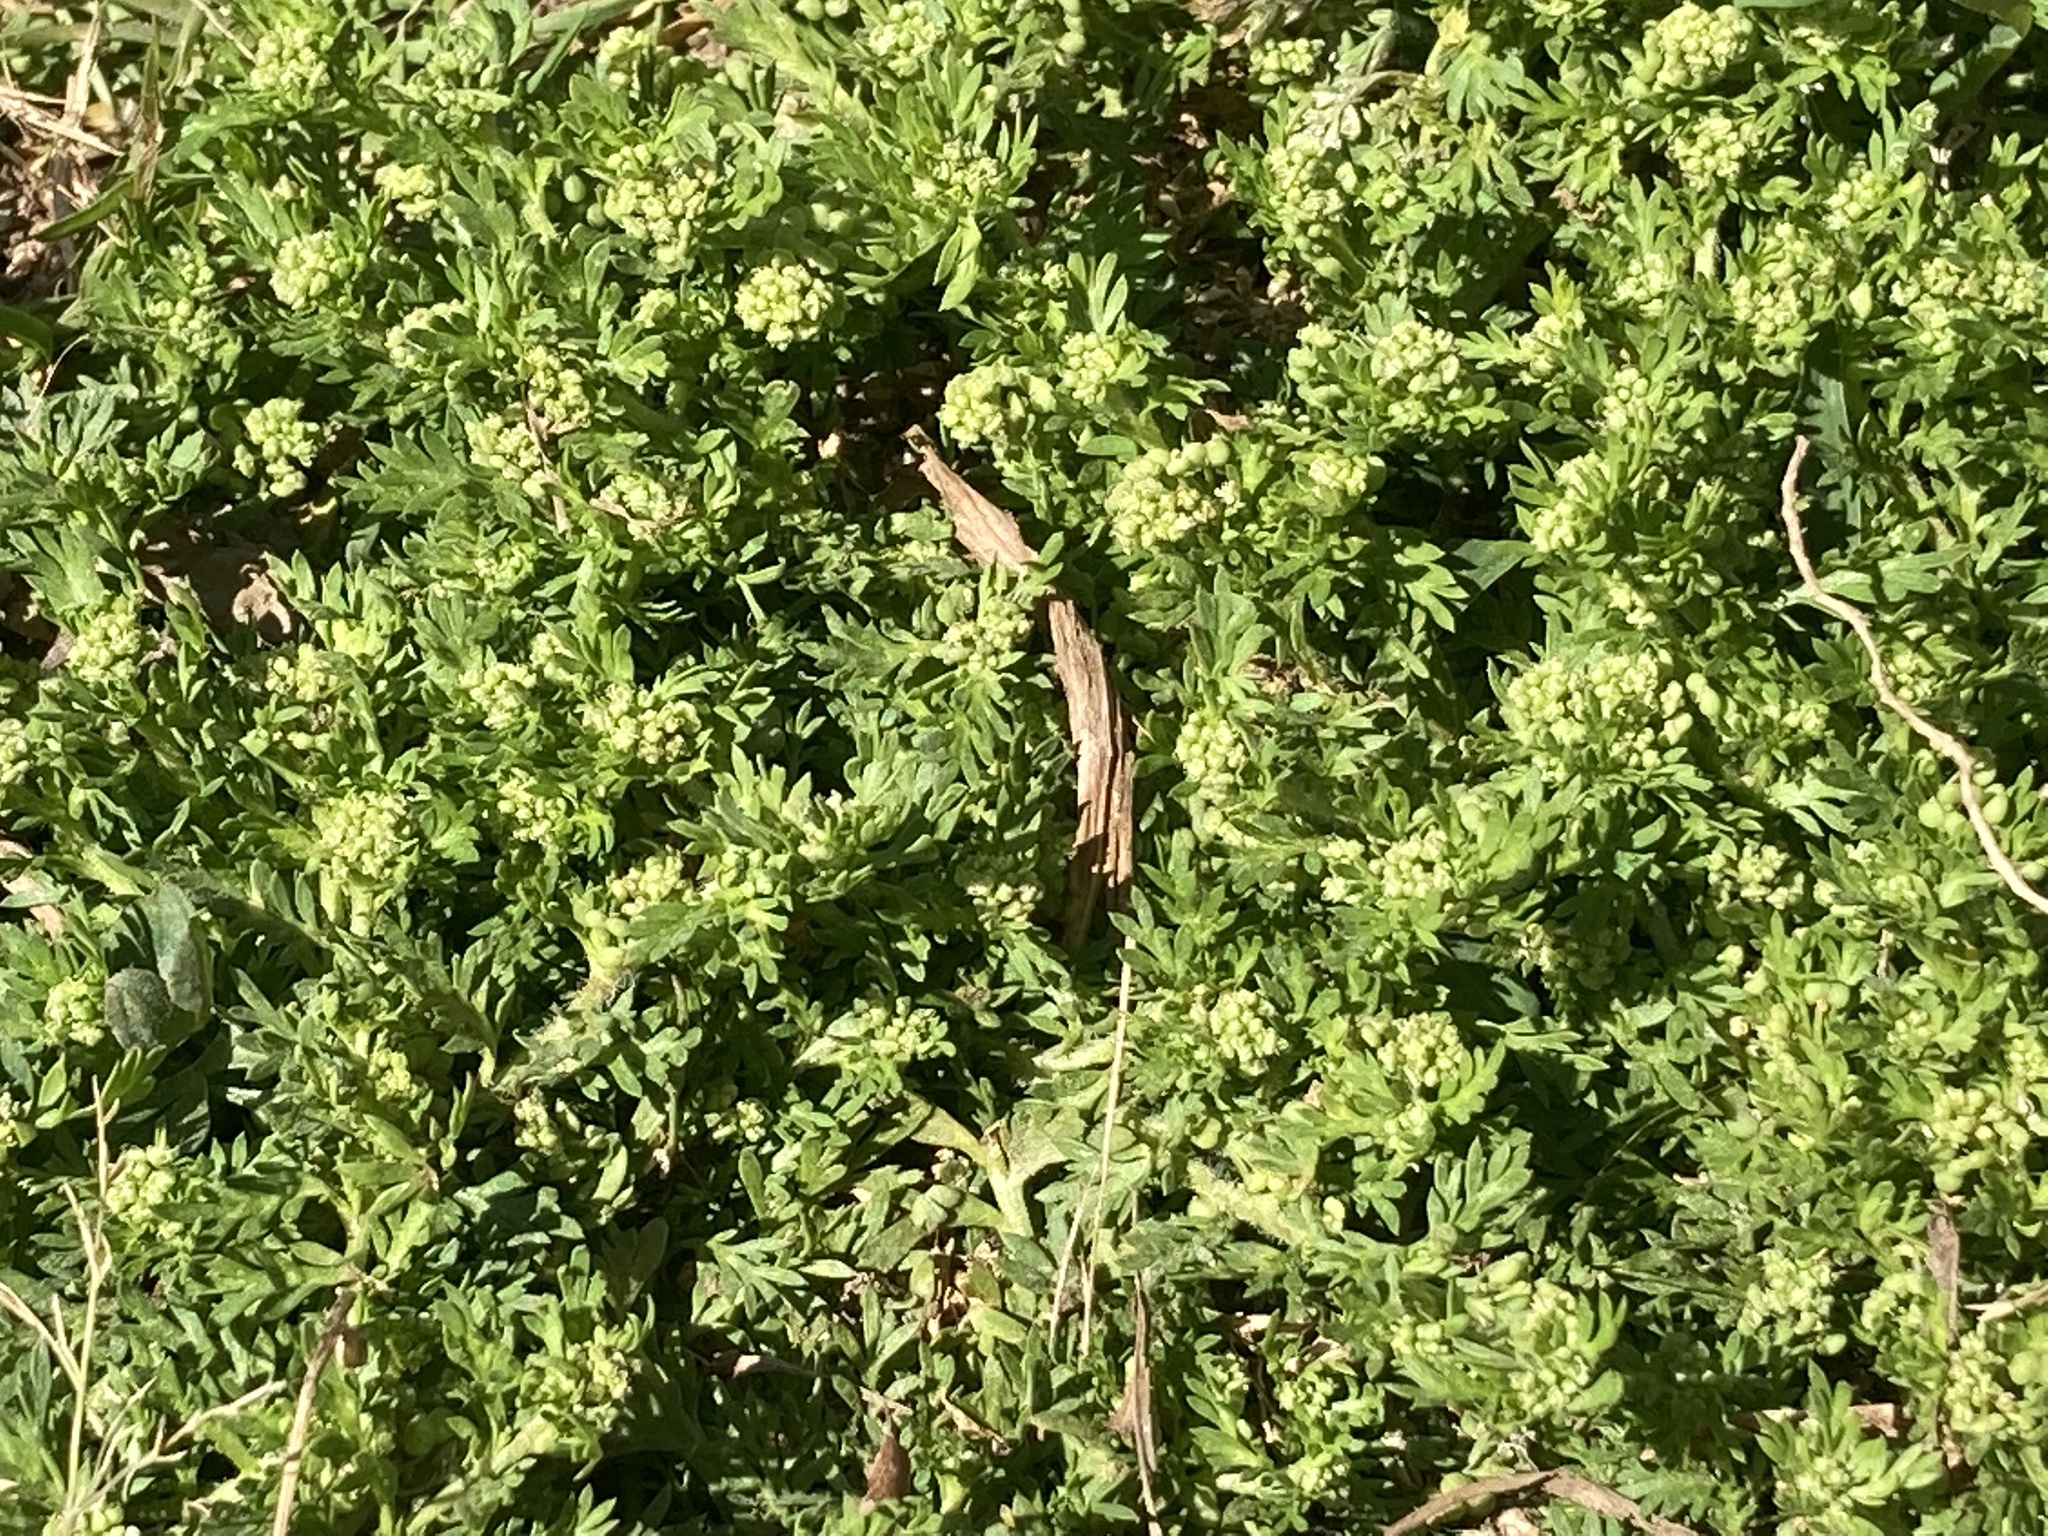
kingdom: Plantae
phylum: Tracheophyta
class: Magnoliopsida
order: Brassicales
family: Brassicaceae
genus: Lepidium
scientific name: Lepidium didymum
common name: Lesser swinecress
